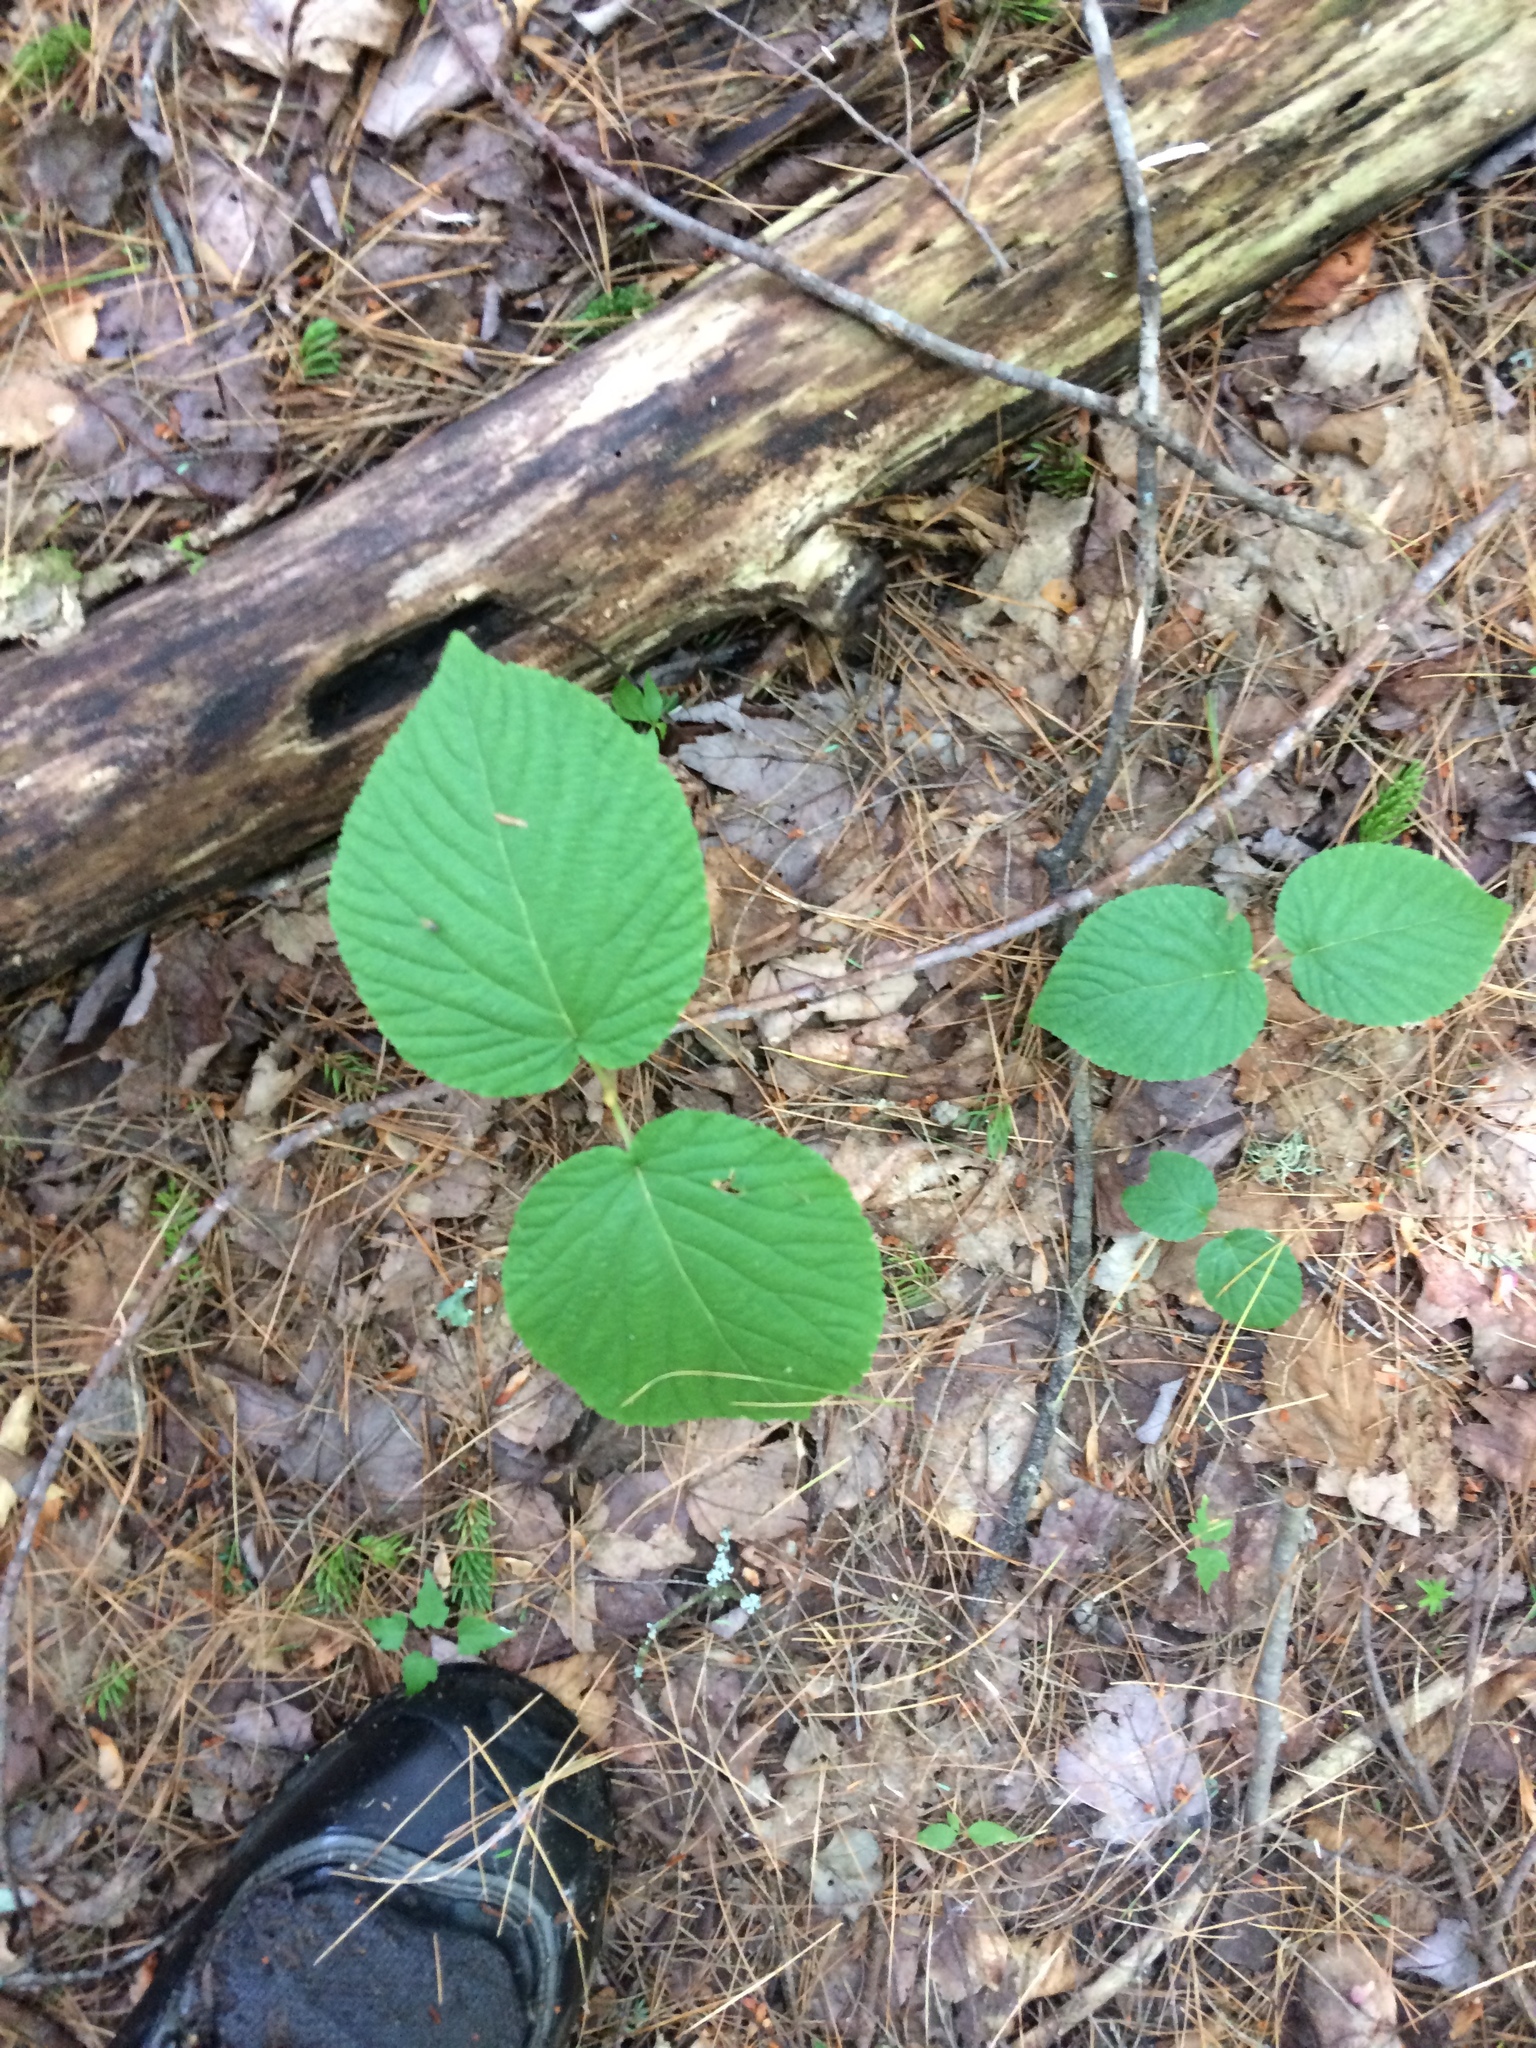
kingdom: Plantae
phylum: Tracheophyta
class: Magnoliopsida
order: Dipsacales
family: Viburnaceae
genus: Viburnum
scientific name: Viburnum lantanoides
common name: Hobblebush
